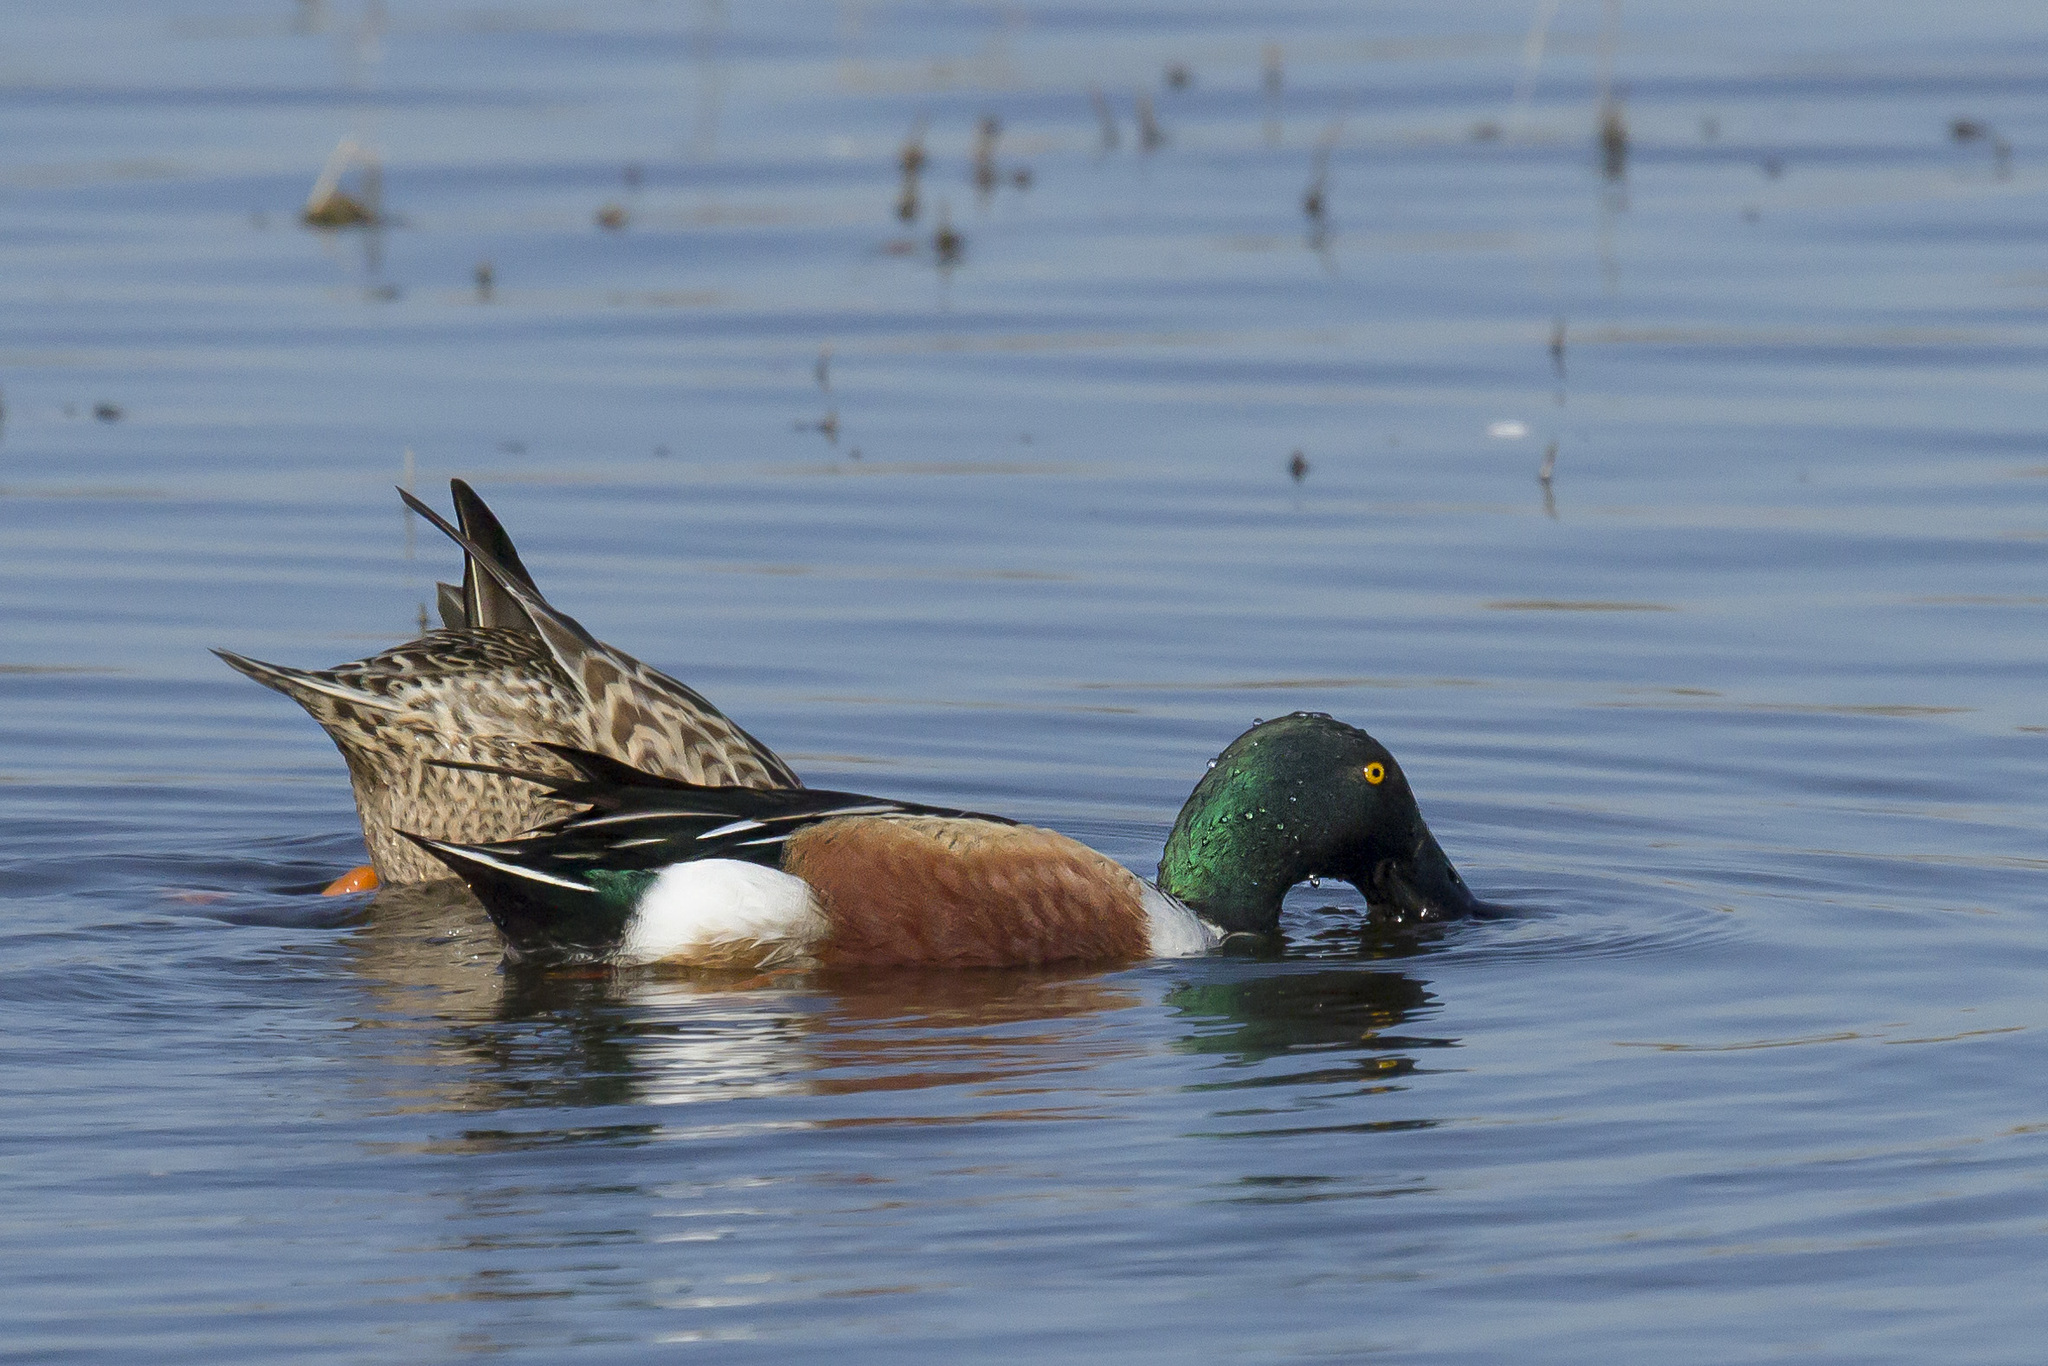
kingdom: Animalia
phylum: Chordata
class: Aves
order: Anseriformes
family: Anatidae
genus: Spatula
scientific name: Spatula clypeata
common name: Northern shoveler
